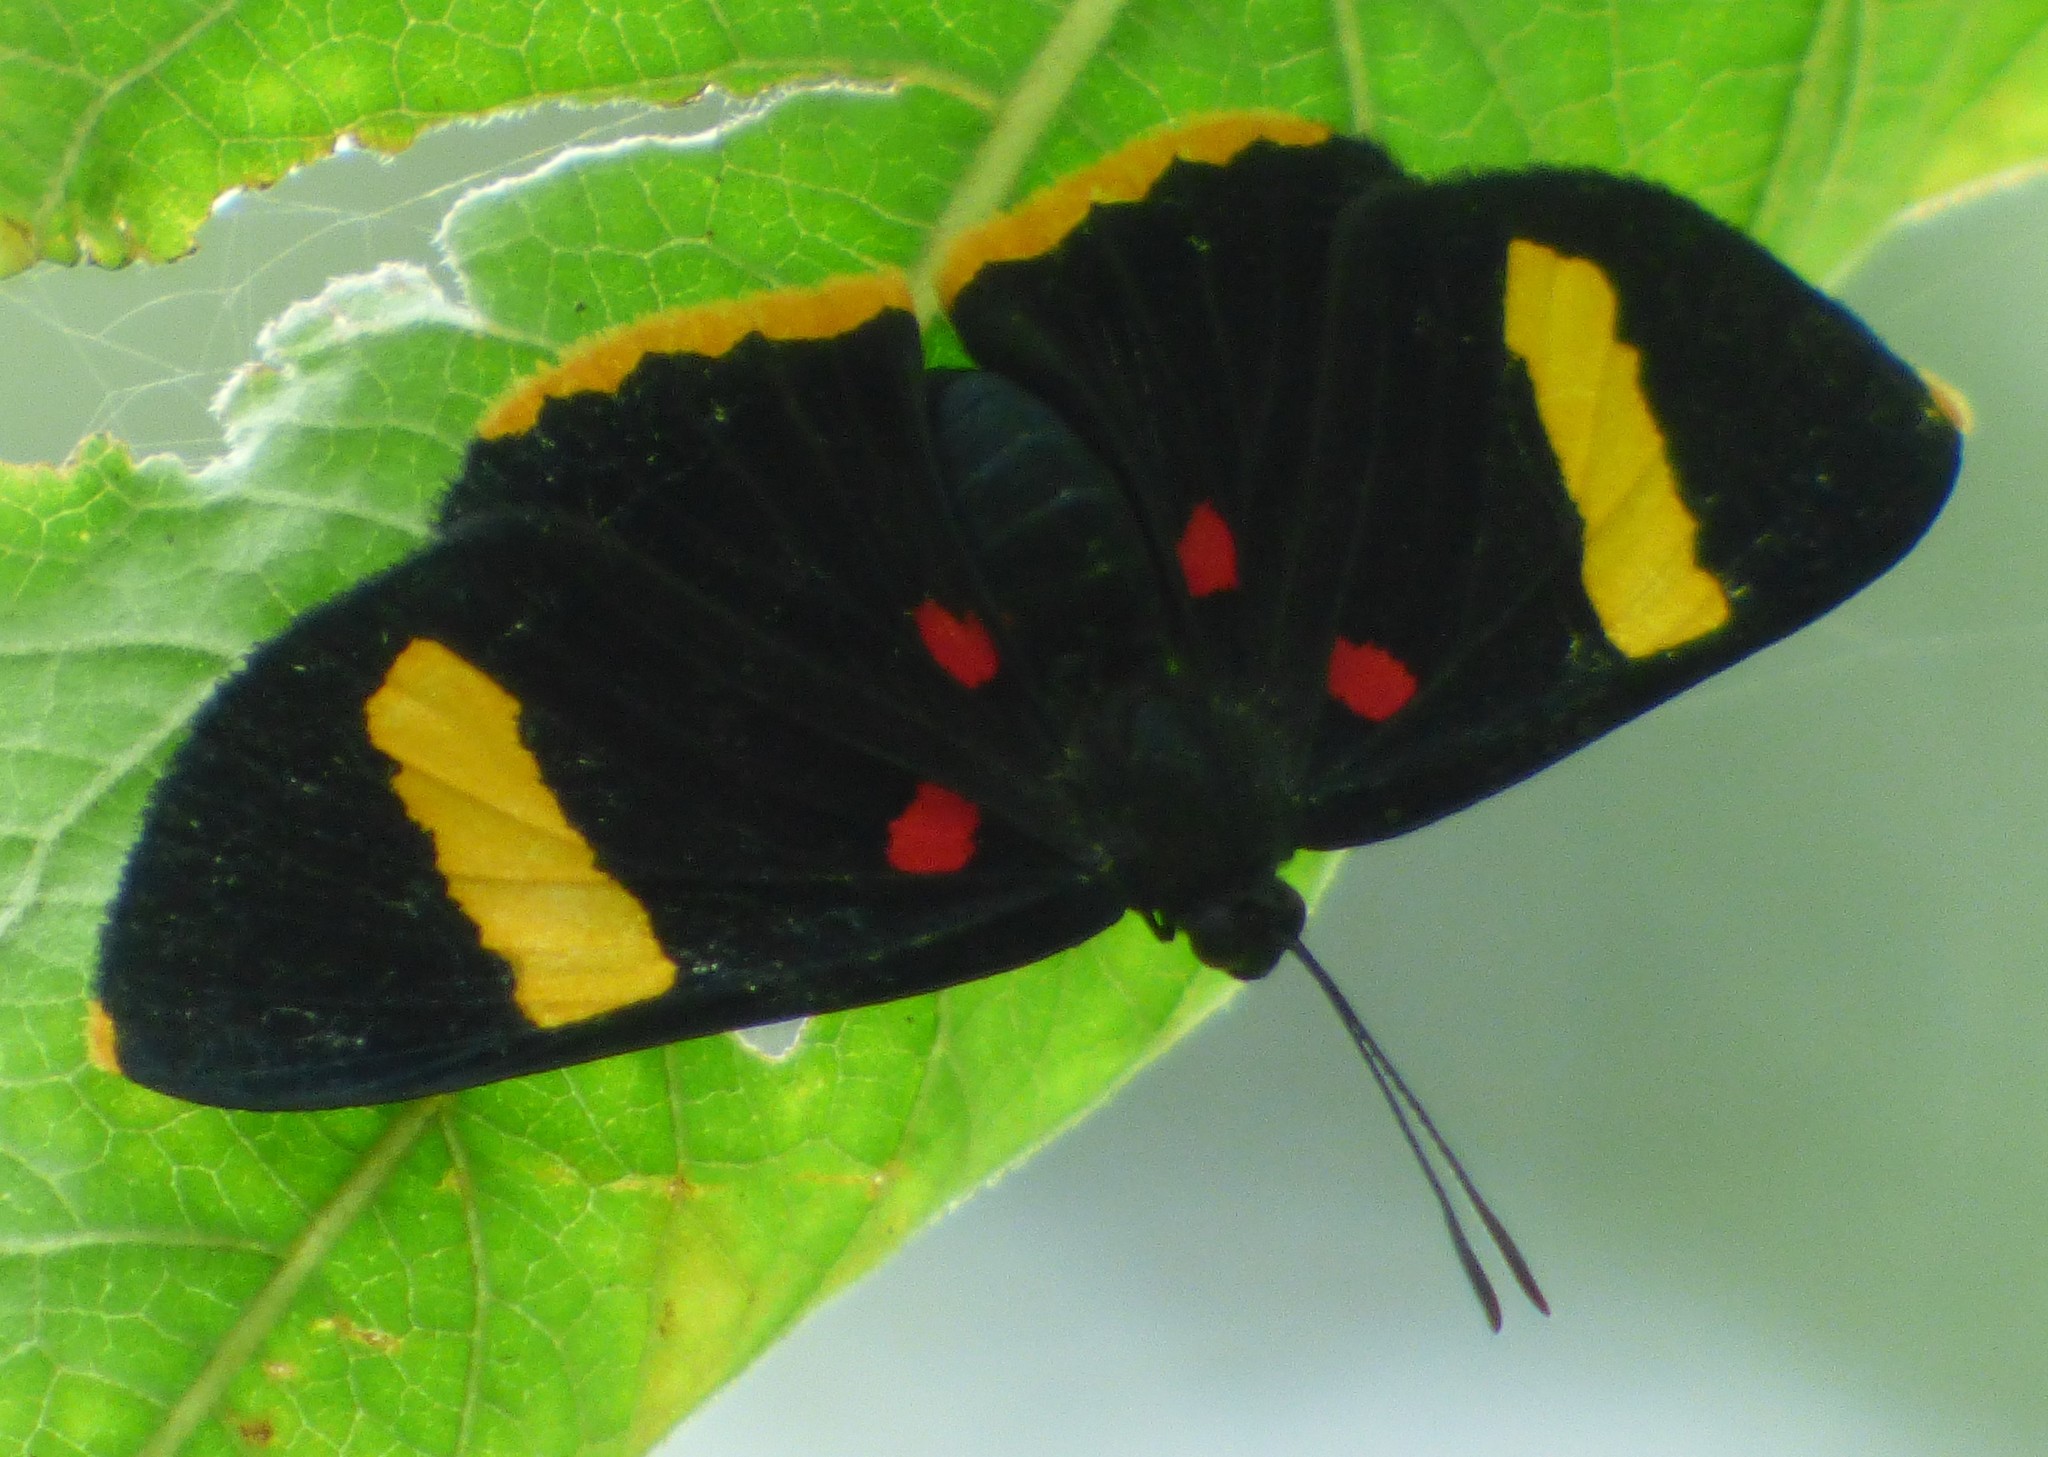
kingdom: Animalia
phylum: Arthropoda
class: Insecta
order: Lepidoptera
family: Lycaenidae
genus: Melanis
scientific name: Melanis electron
